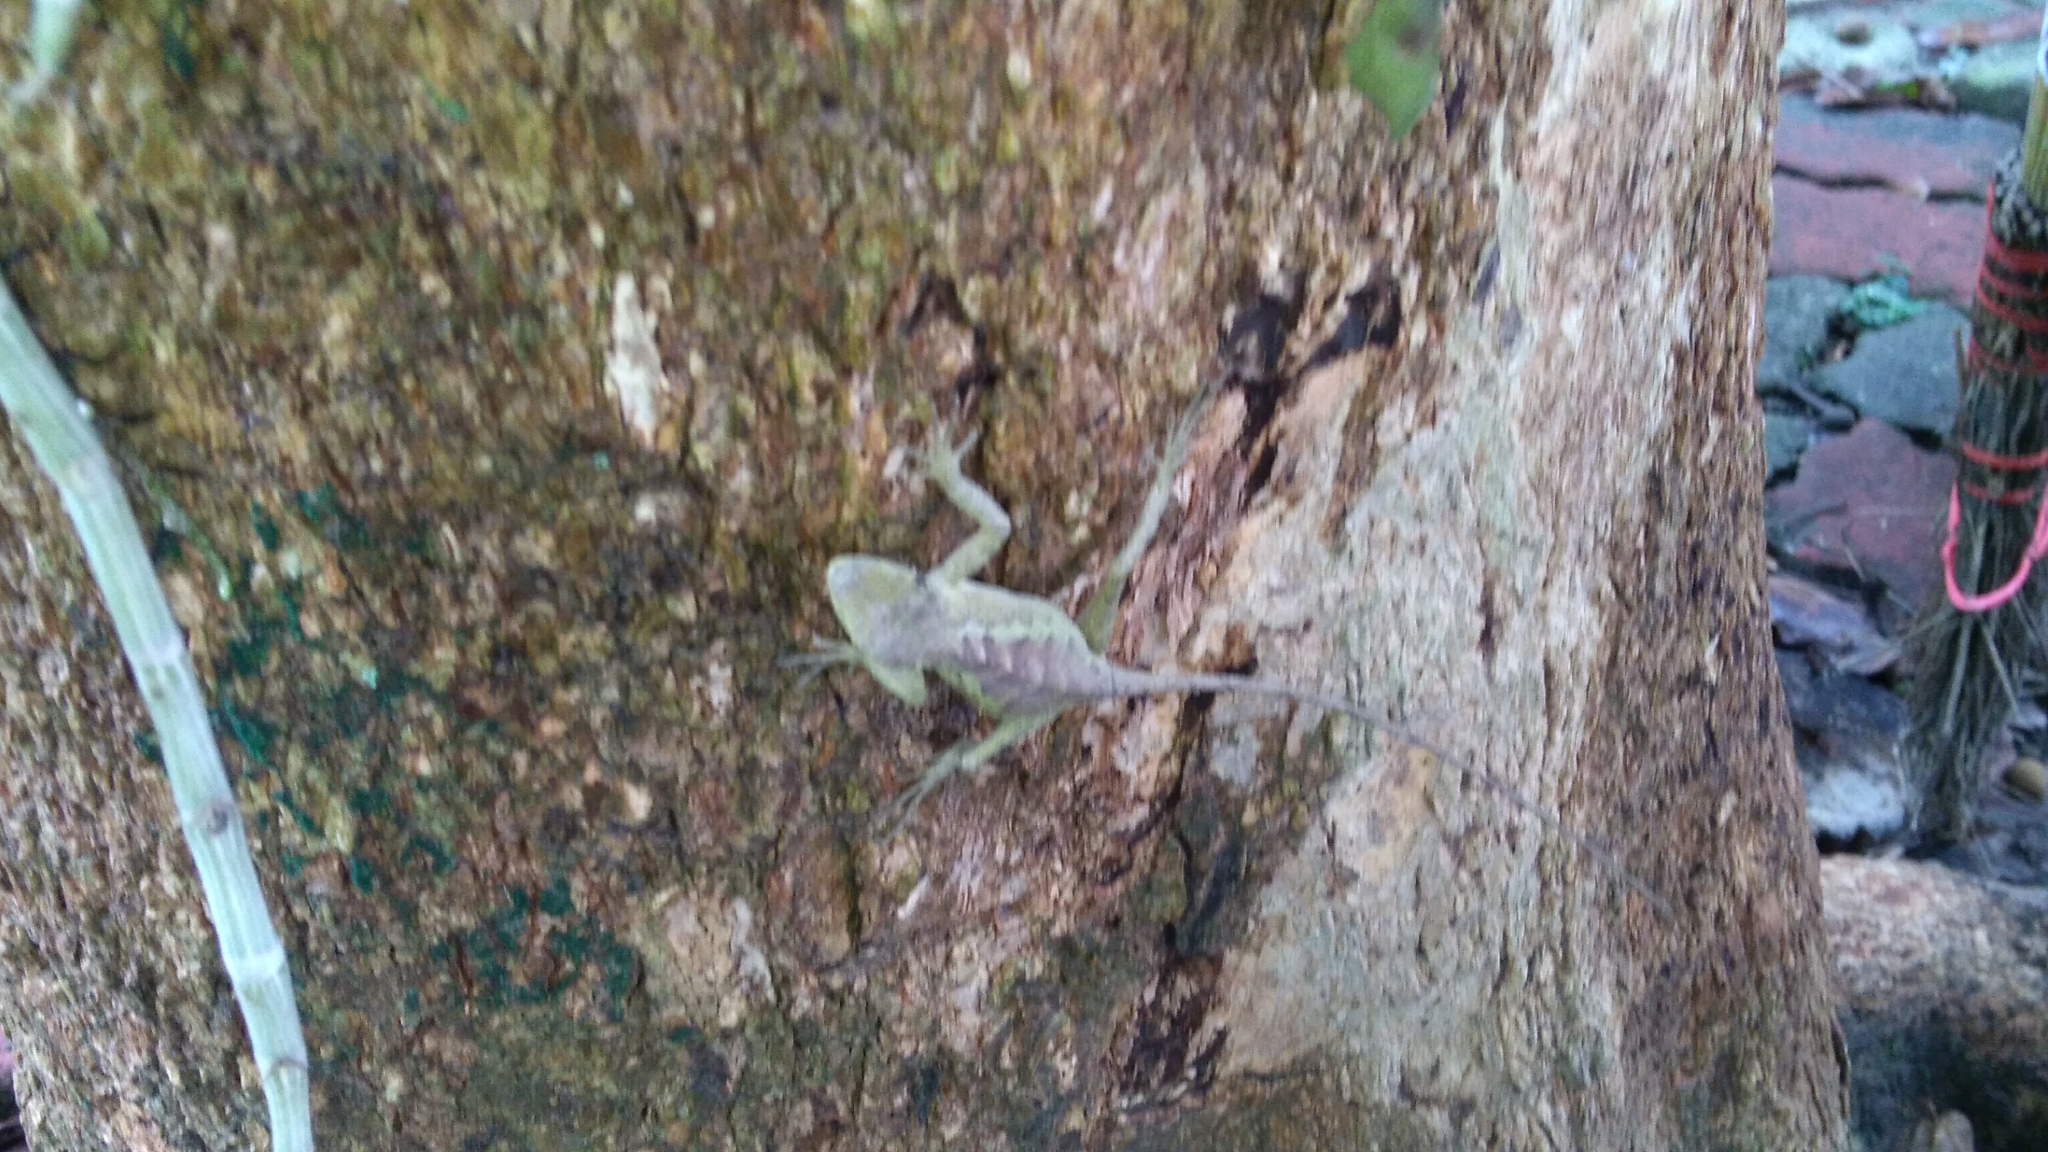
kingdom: Animalia
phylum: Chordata
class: Squamata
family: Agamidae
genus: Diploderma
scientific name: Diploderma swinhonis
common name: Taiwan japalure
